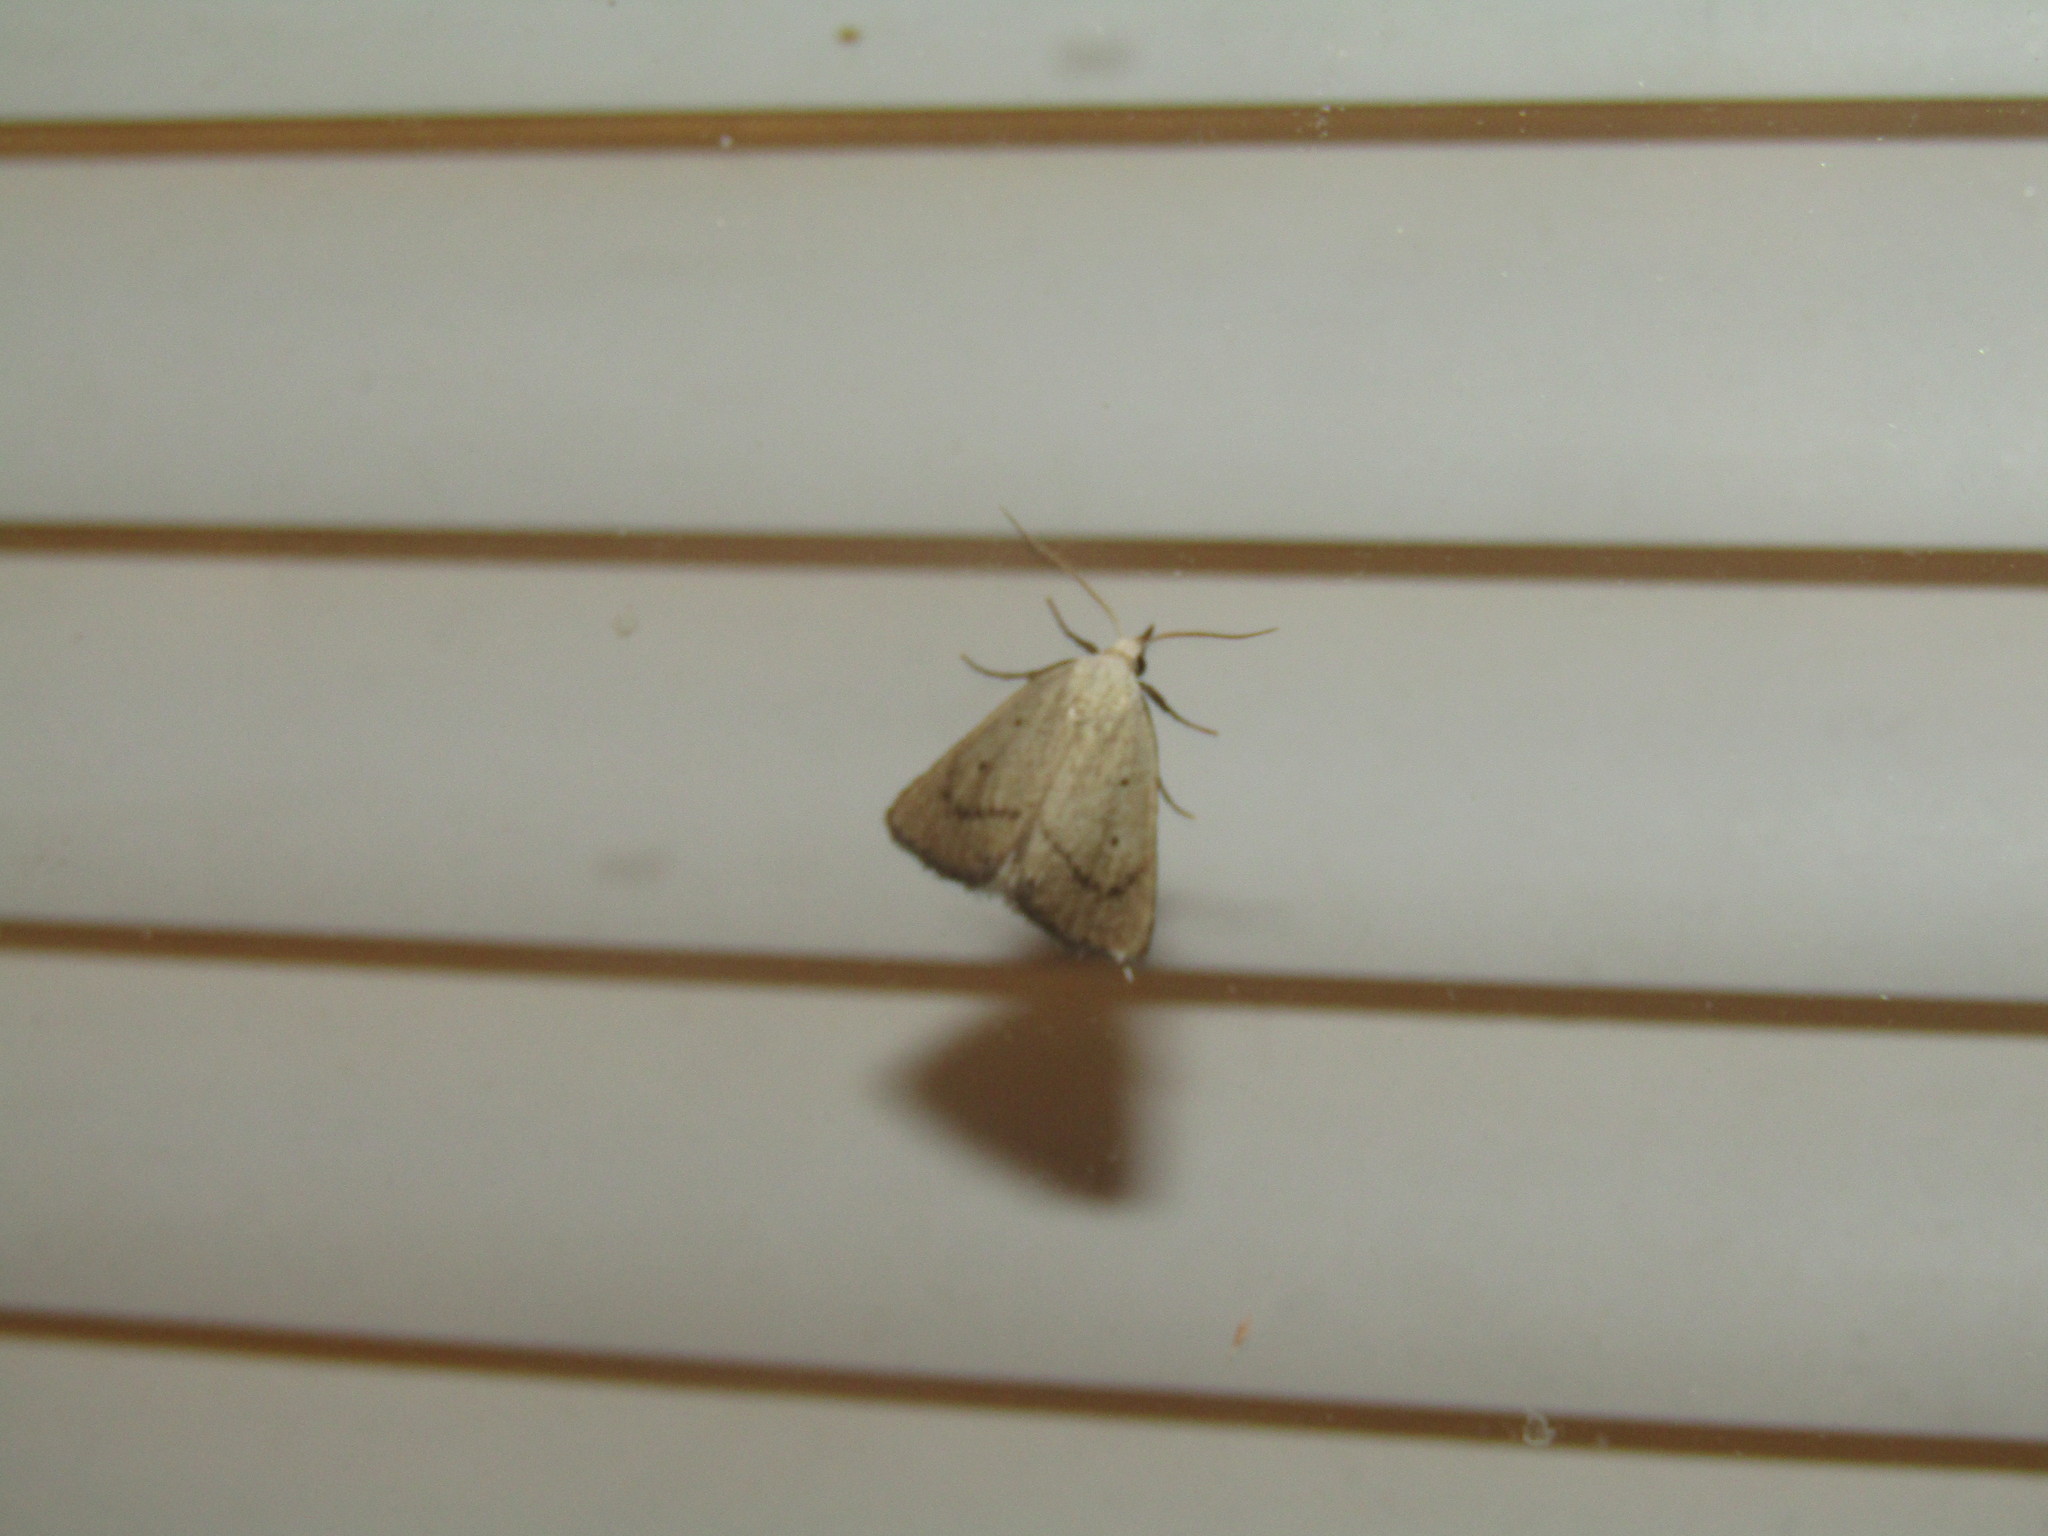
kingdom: Animalia
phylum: Arthropoda
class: Insecta
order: Lepidoptera
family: Erebidae
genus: Gabara
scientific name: Gabara subnivosella
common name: Snowy gabara
